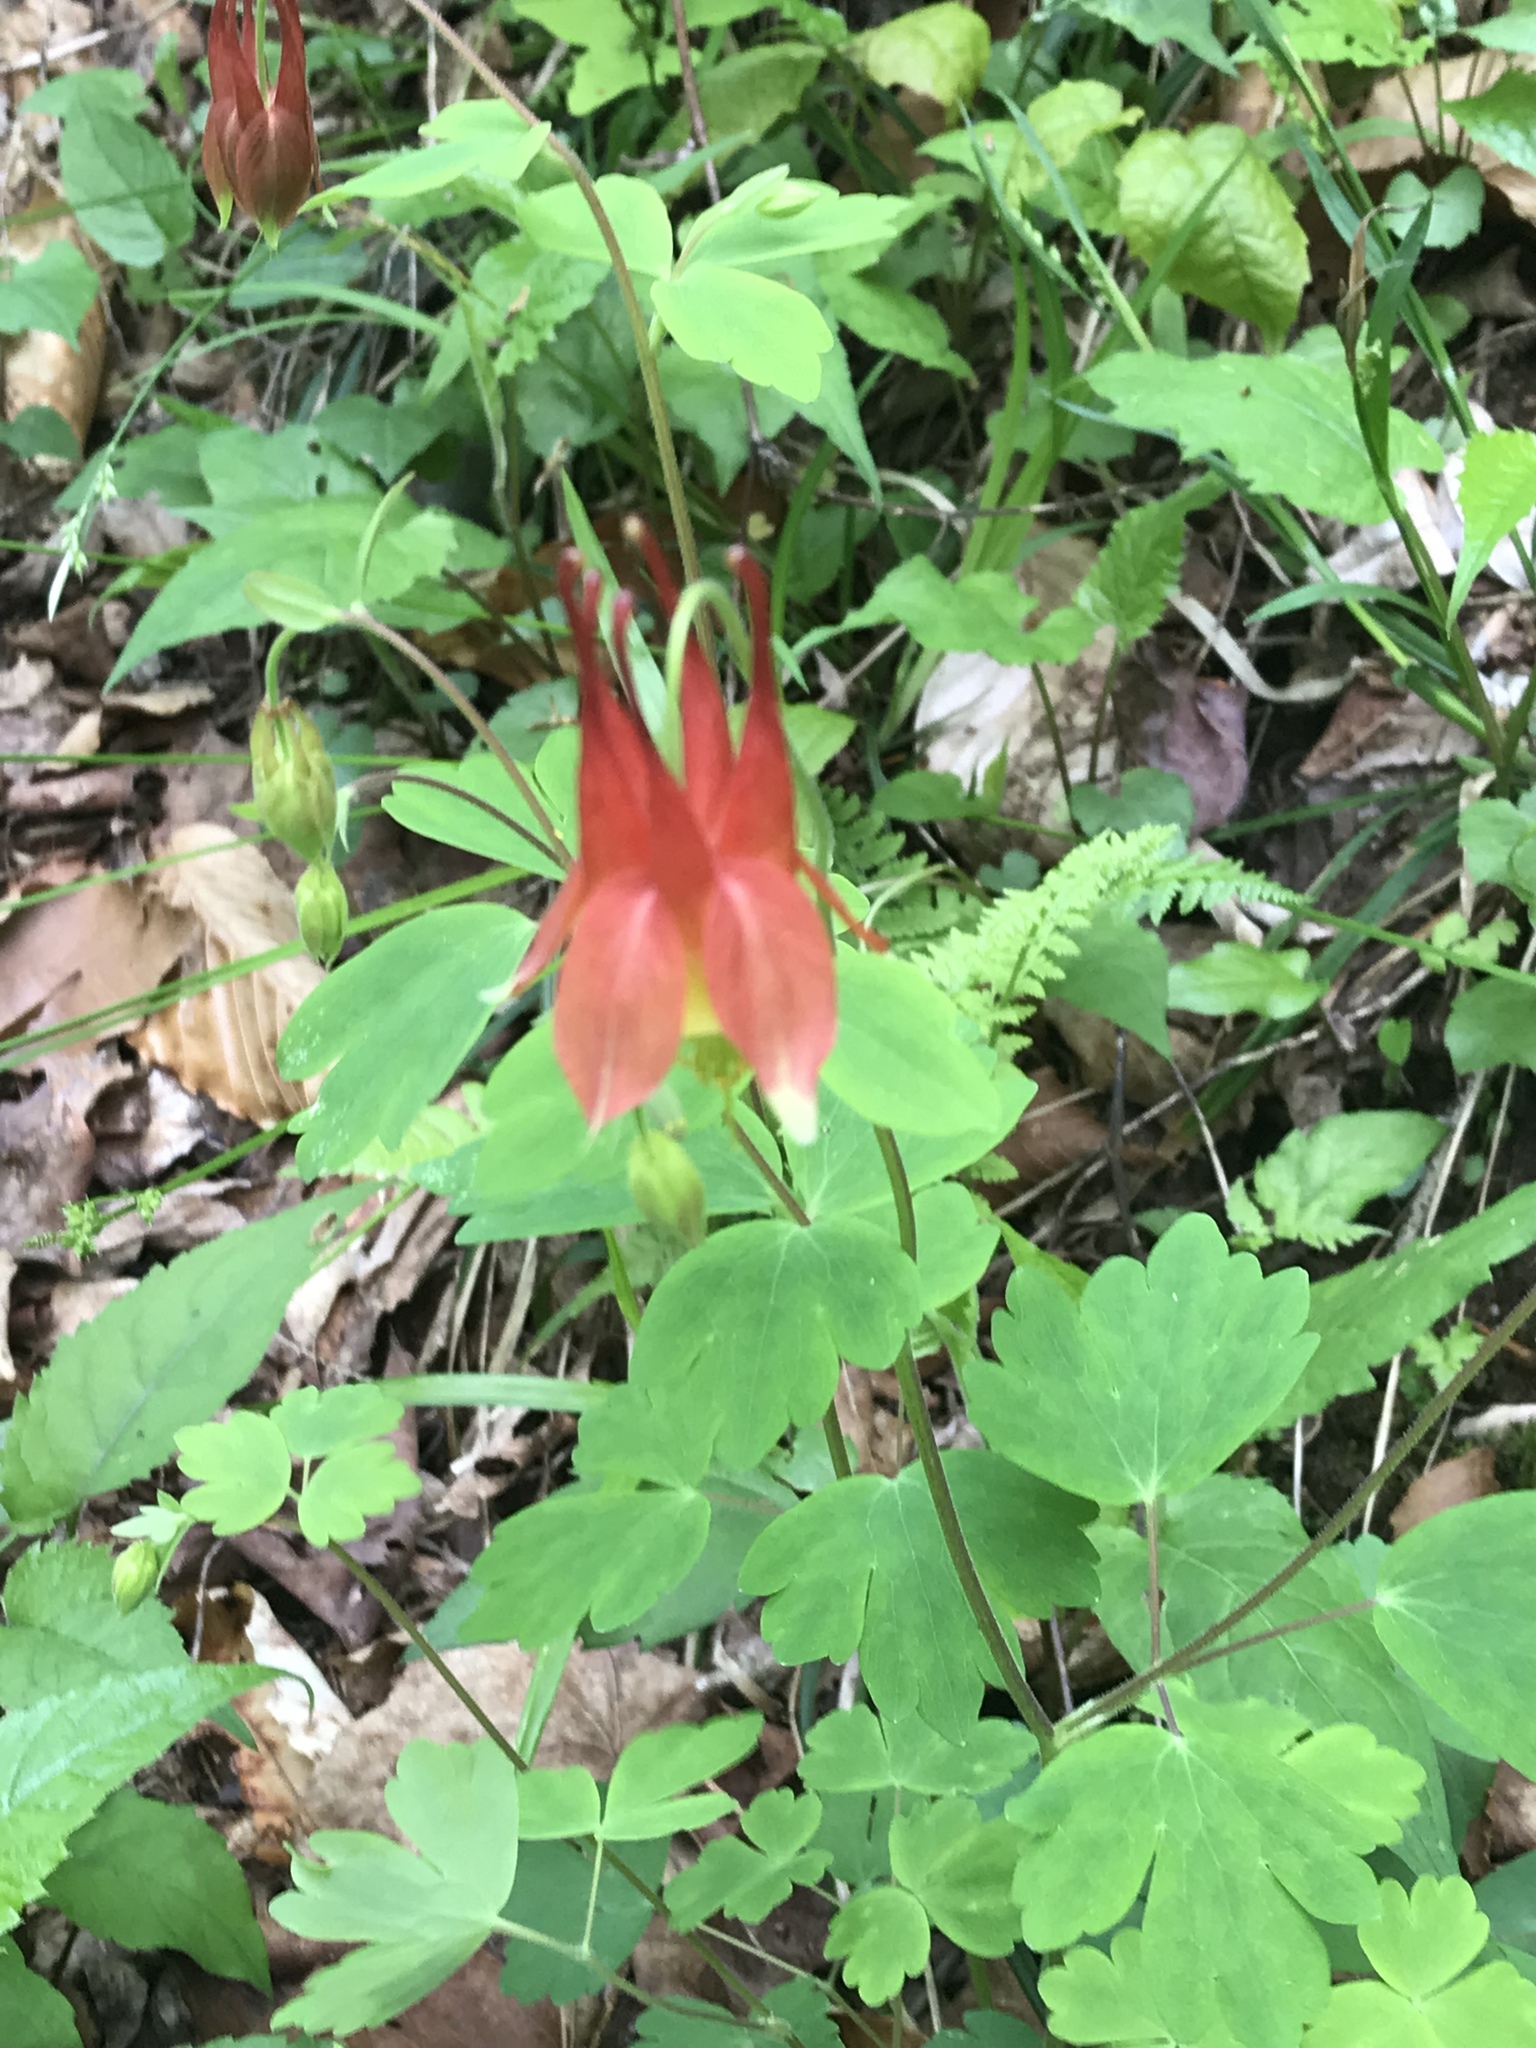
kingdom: Plantae
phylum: Tracheophyta
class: Magnoliopsida
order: Ranunculales
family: Ranunculaceae
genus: Aquilegia
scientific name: Aquilegia canadensis
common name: American columbine
